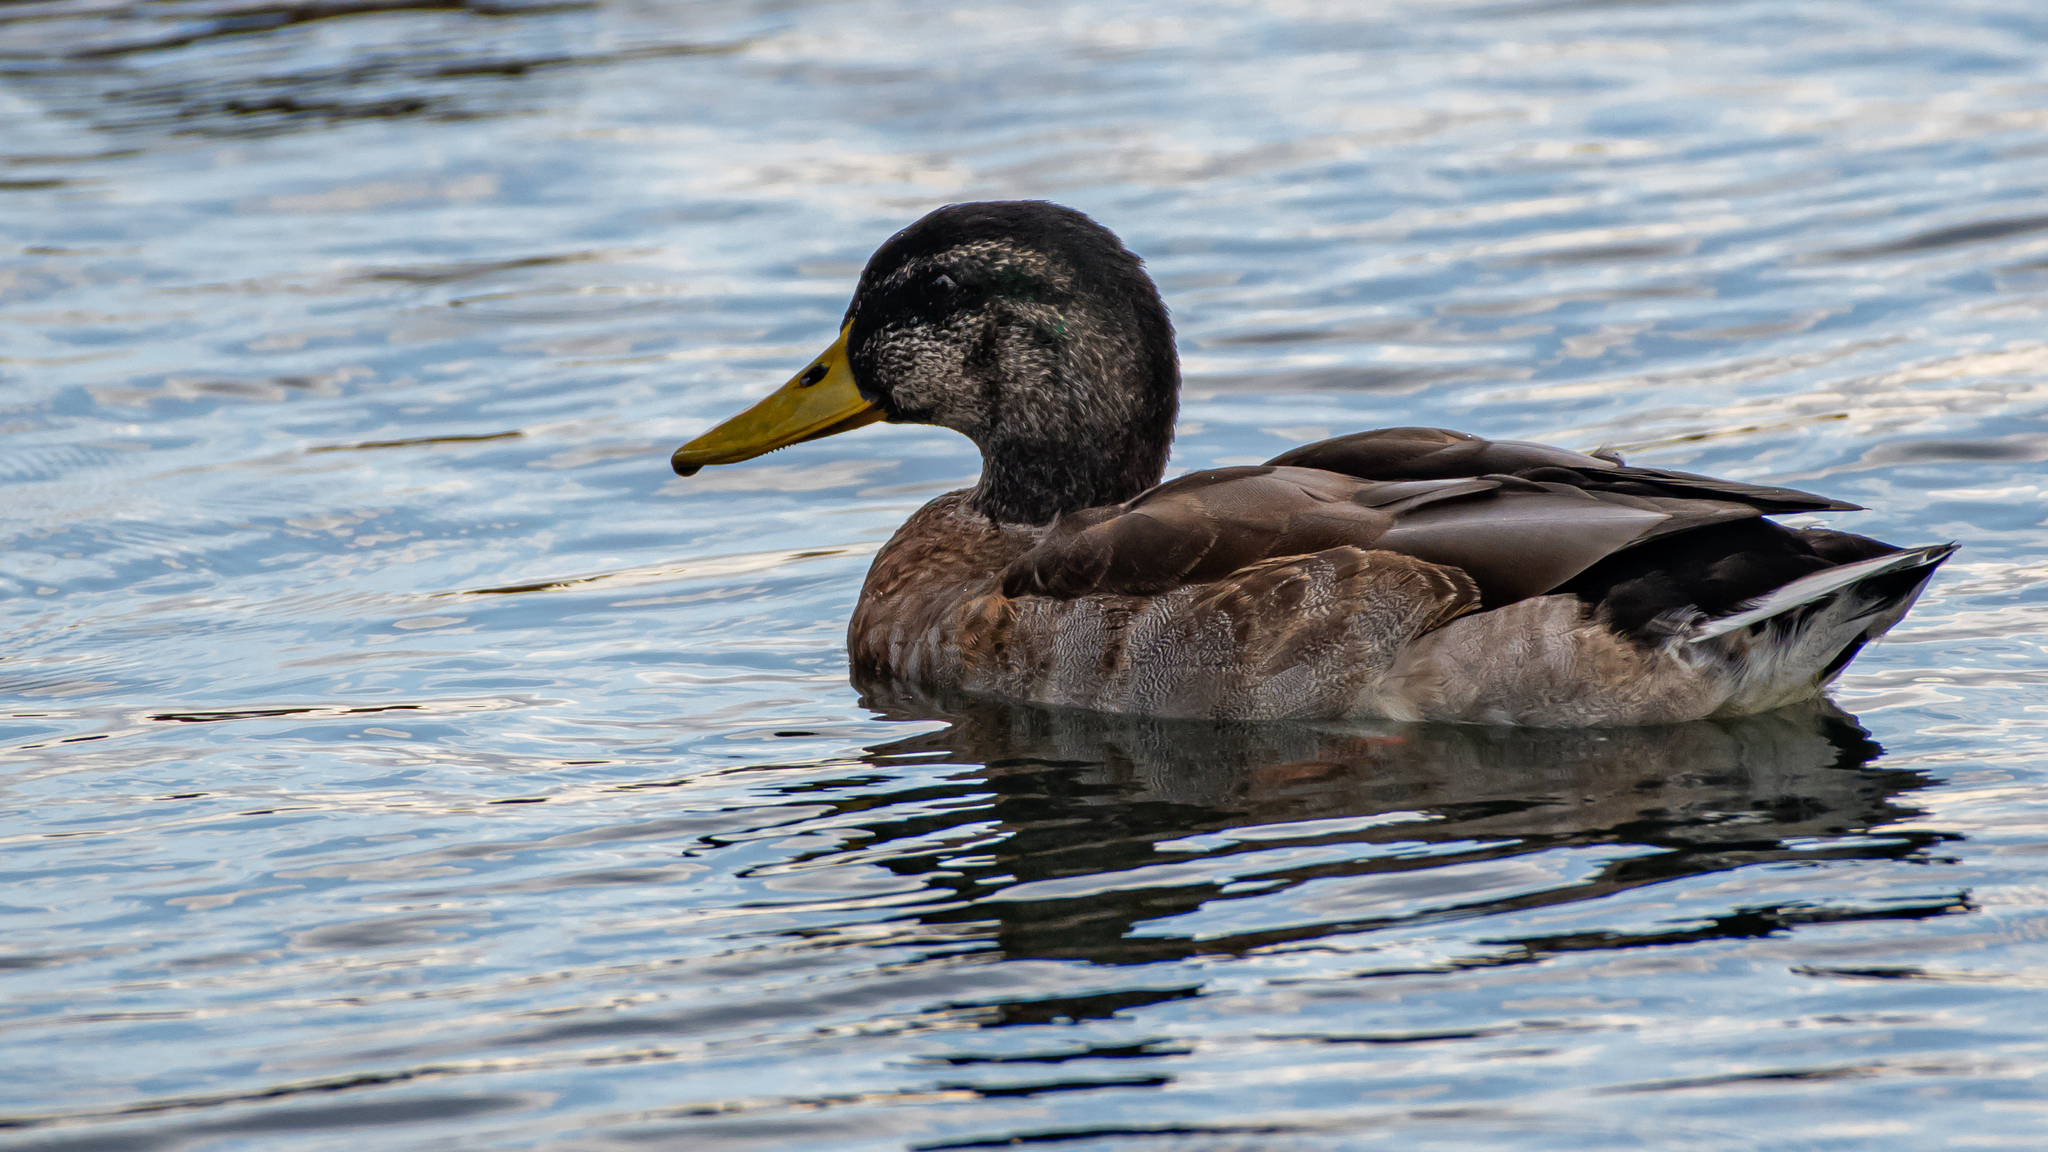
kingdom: Animalia
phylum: Chordata
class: Aves
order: Anseriformes
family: Anatidae
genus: Anas
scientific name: Anas platyrhynchos
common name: Mallard
